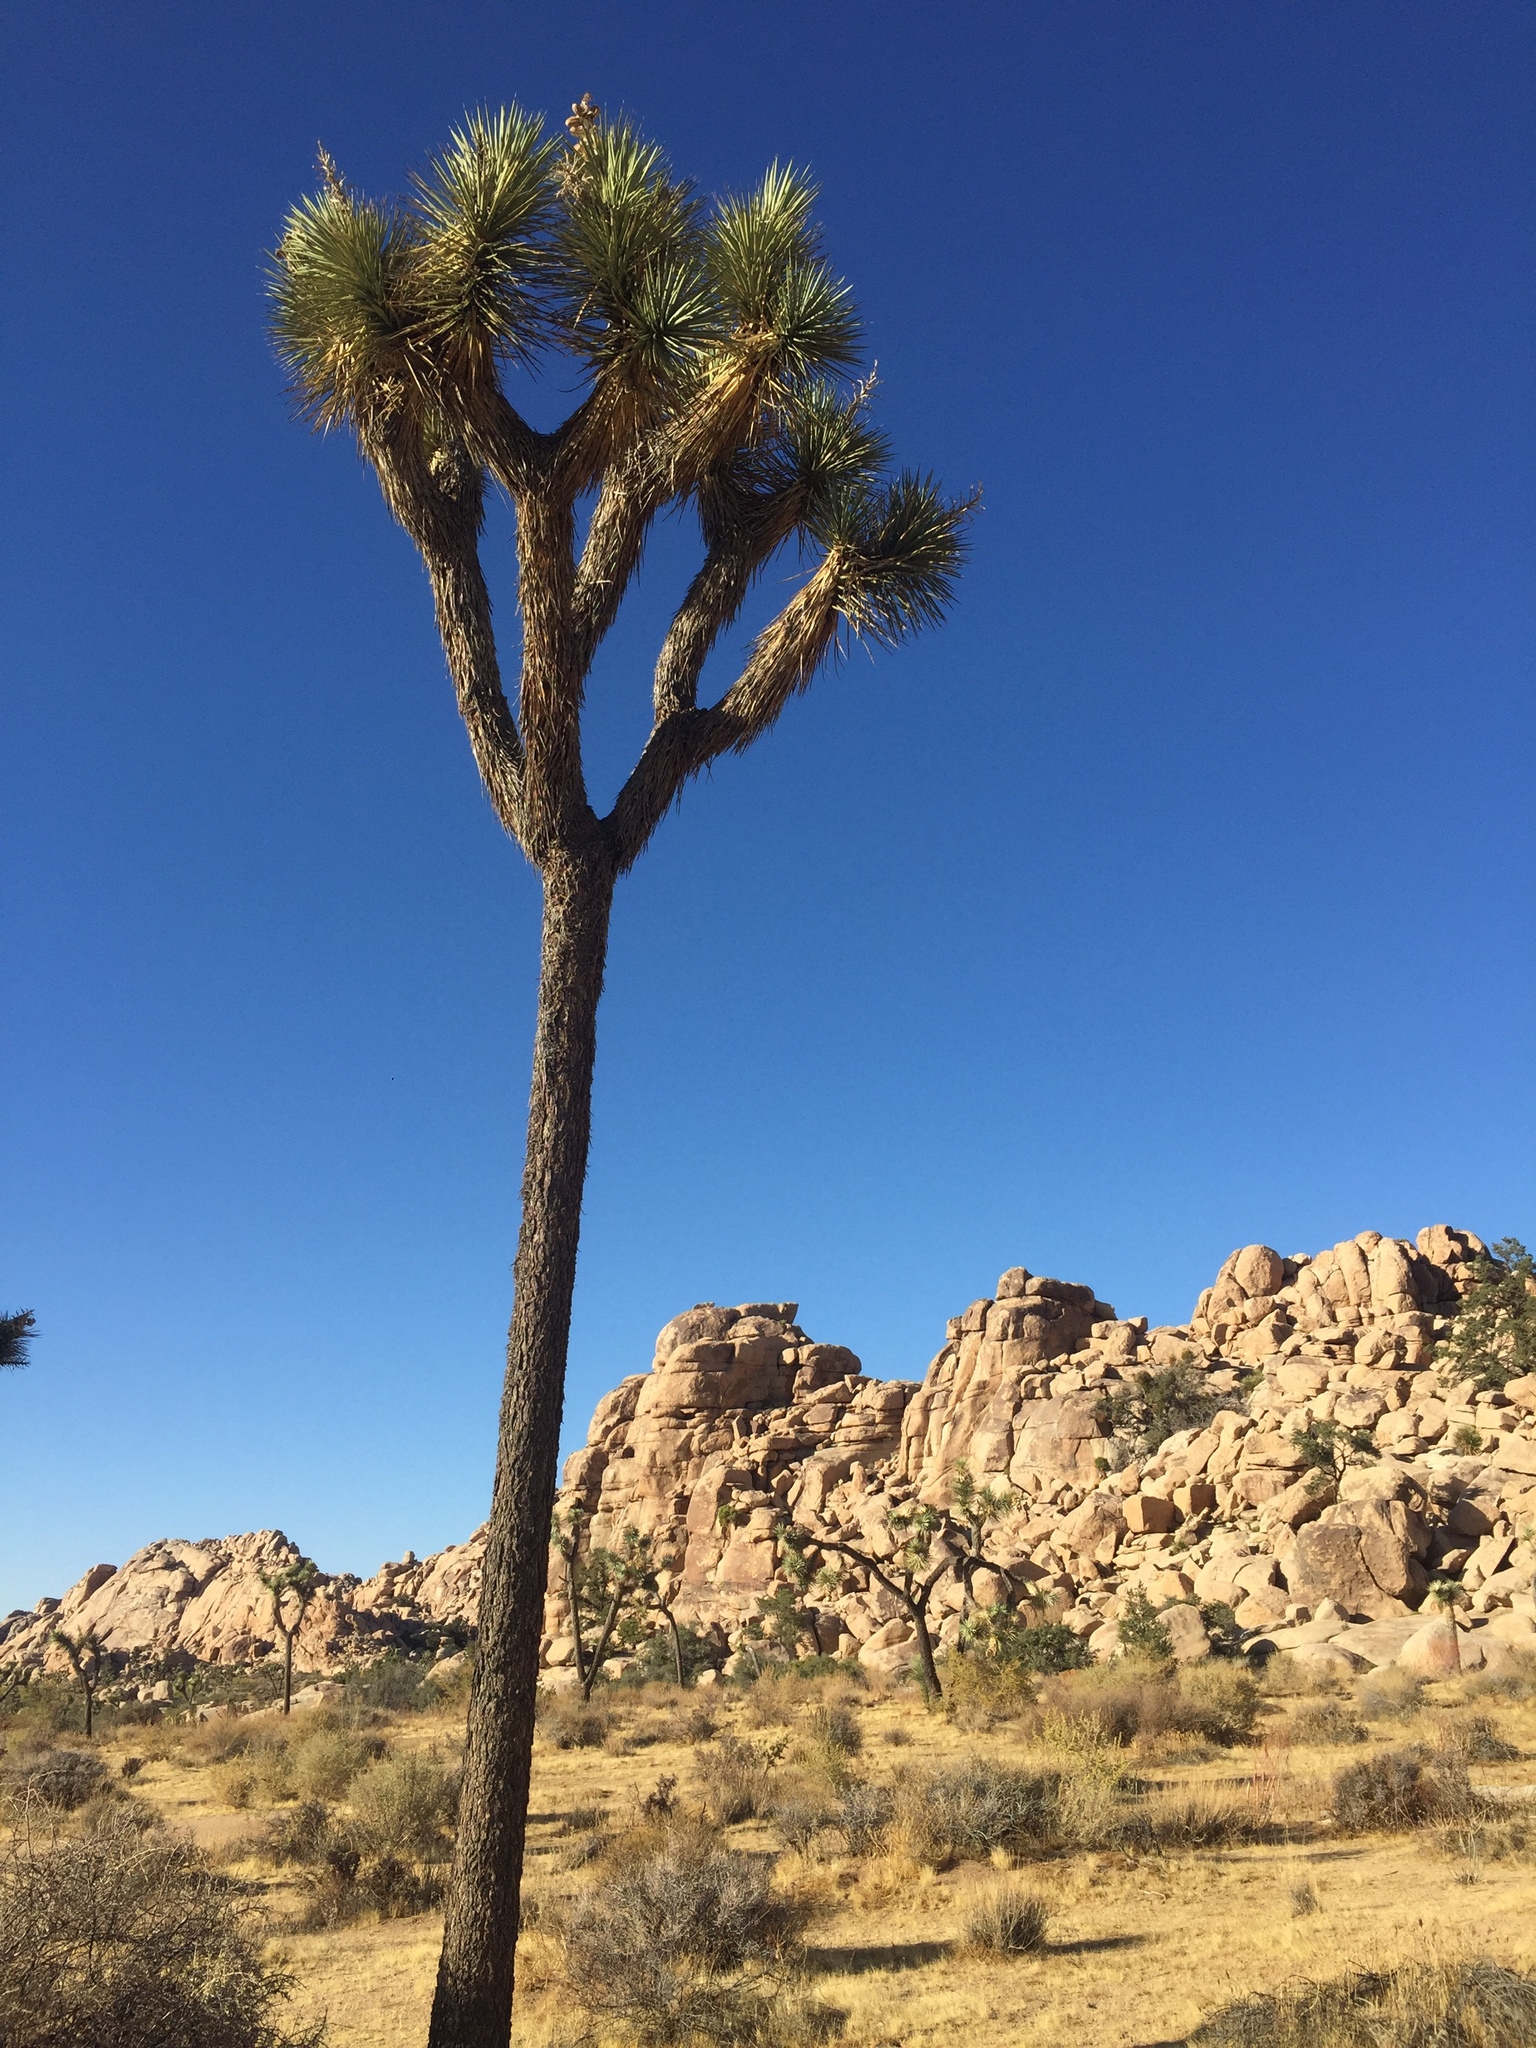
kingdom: Plantae
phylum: Tracheophyta
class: Liliopsida
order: Asparagales
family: Asparagaceae
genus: Yucca
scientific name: Yucca brevifolia
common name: Joshua tree
